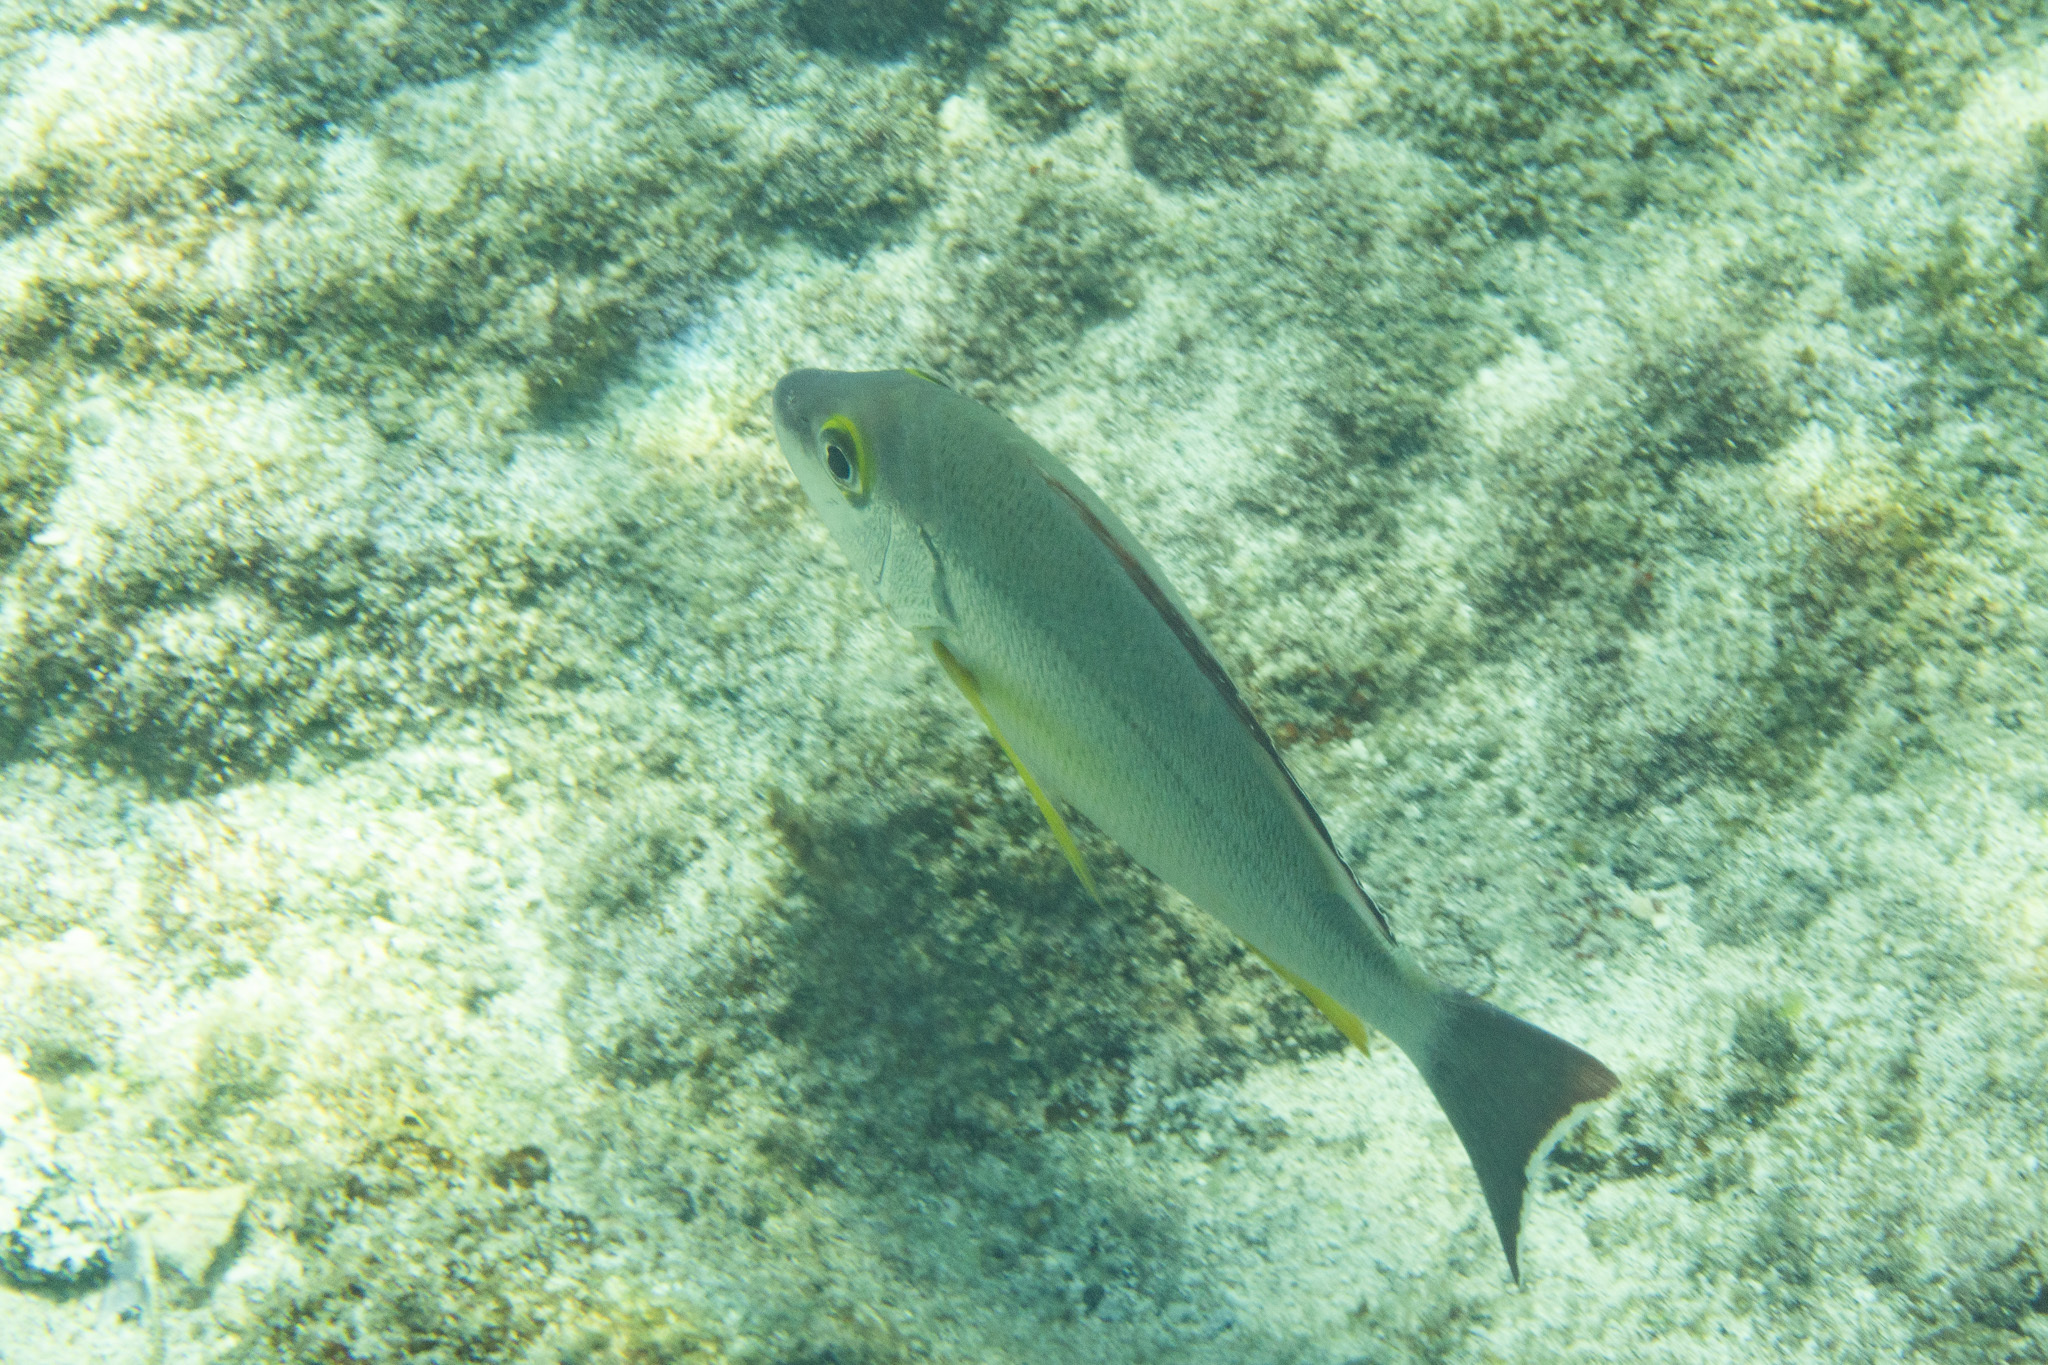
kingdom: Animalia
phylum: Chordata
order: Perciformes
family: Lutjanidae
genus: Lutjanus
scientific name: Lutjanus fulvus
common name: Blacktail snapper
